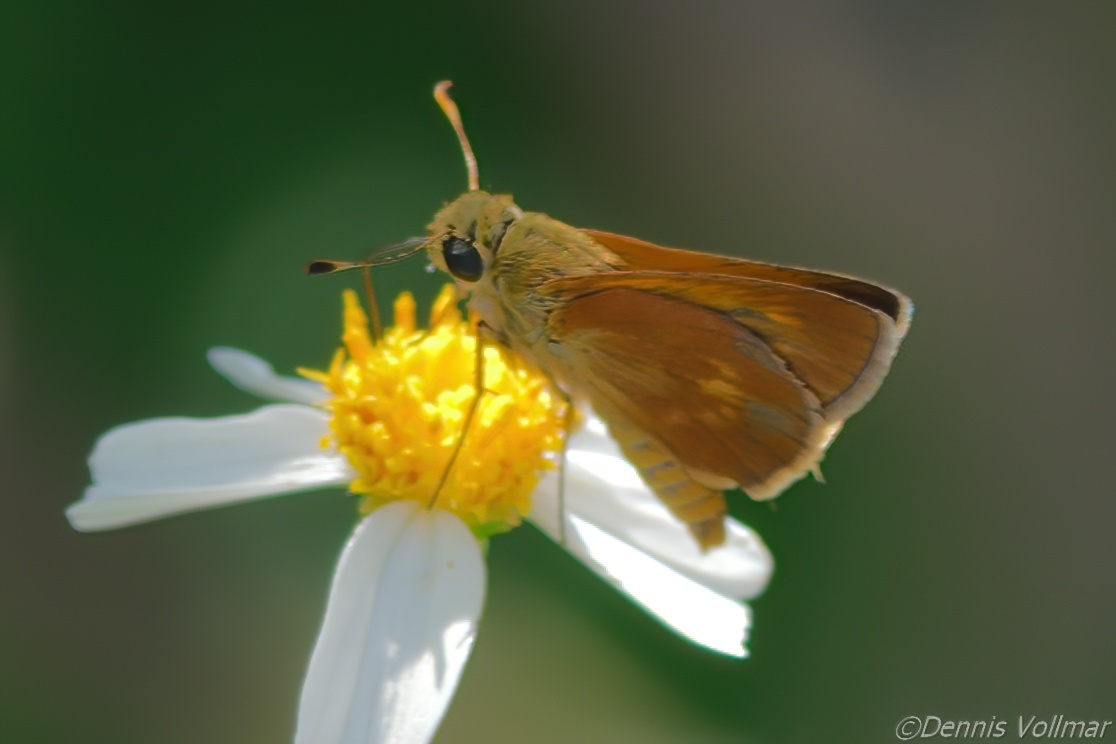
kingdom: Animalia
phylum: Arthropoda
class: Insecta
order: Lepidoptera
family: Hesperiidae
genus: Polites
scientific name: Polites otho
